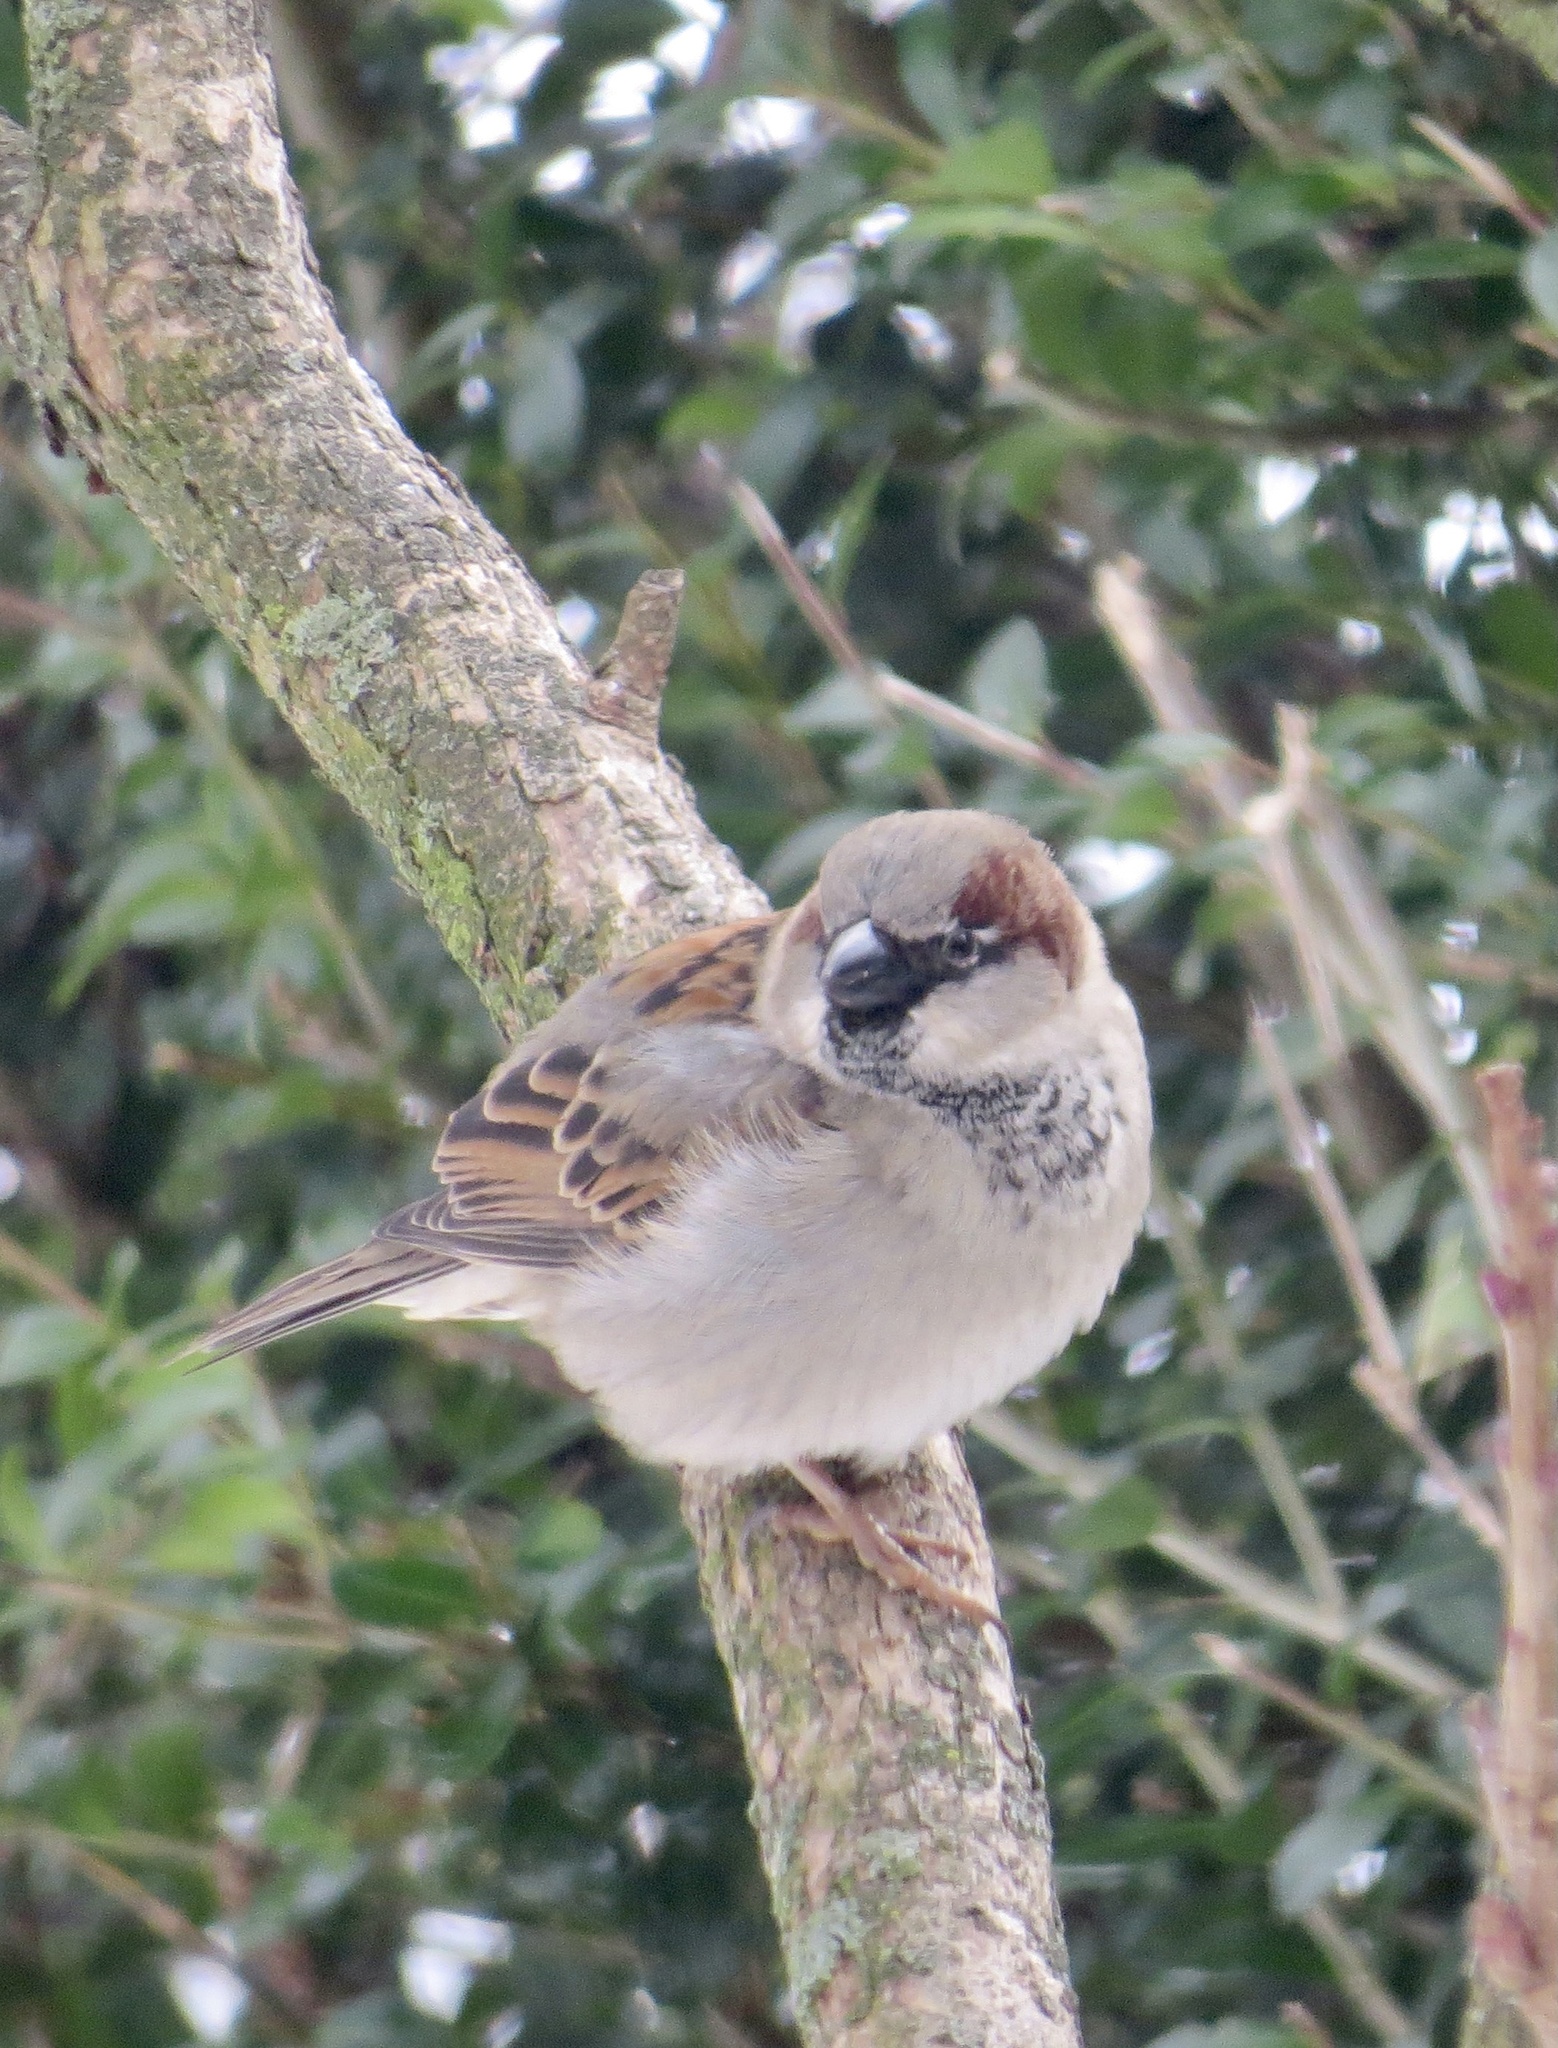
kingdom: Animalia
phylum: Chordata
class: Aves
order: Passeriformes
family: Passeridae
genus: Passer
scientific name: Passer domesticus
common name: House sparrow
